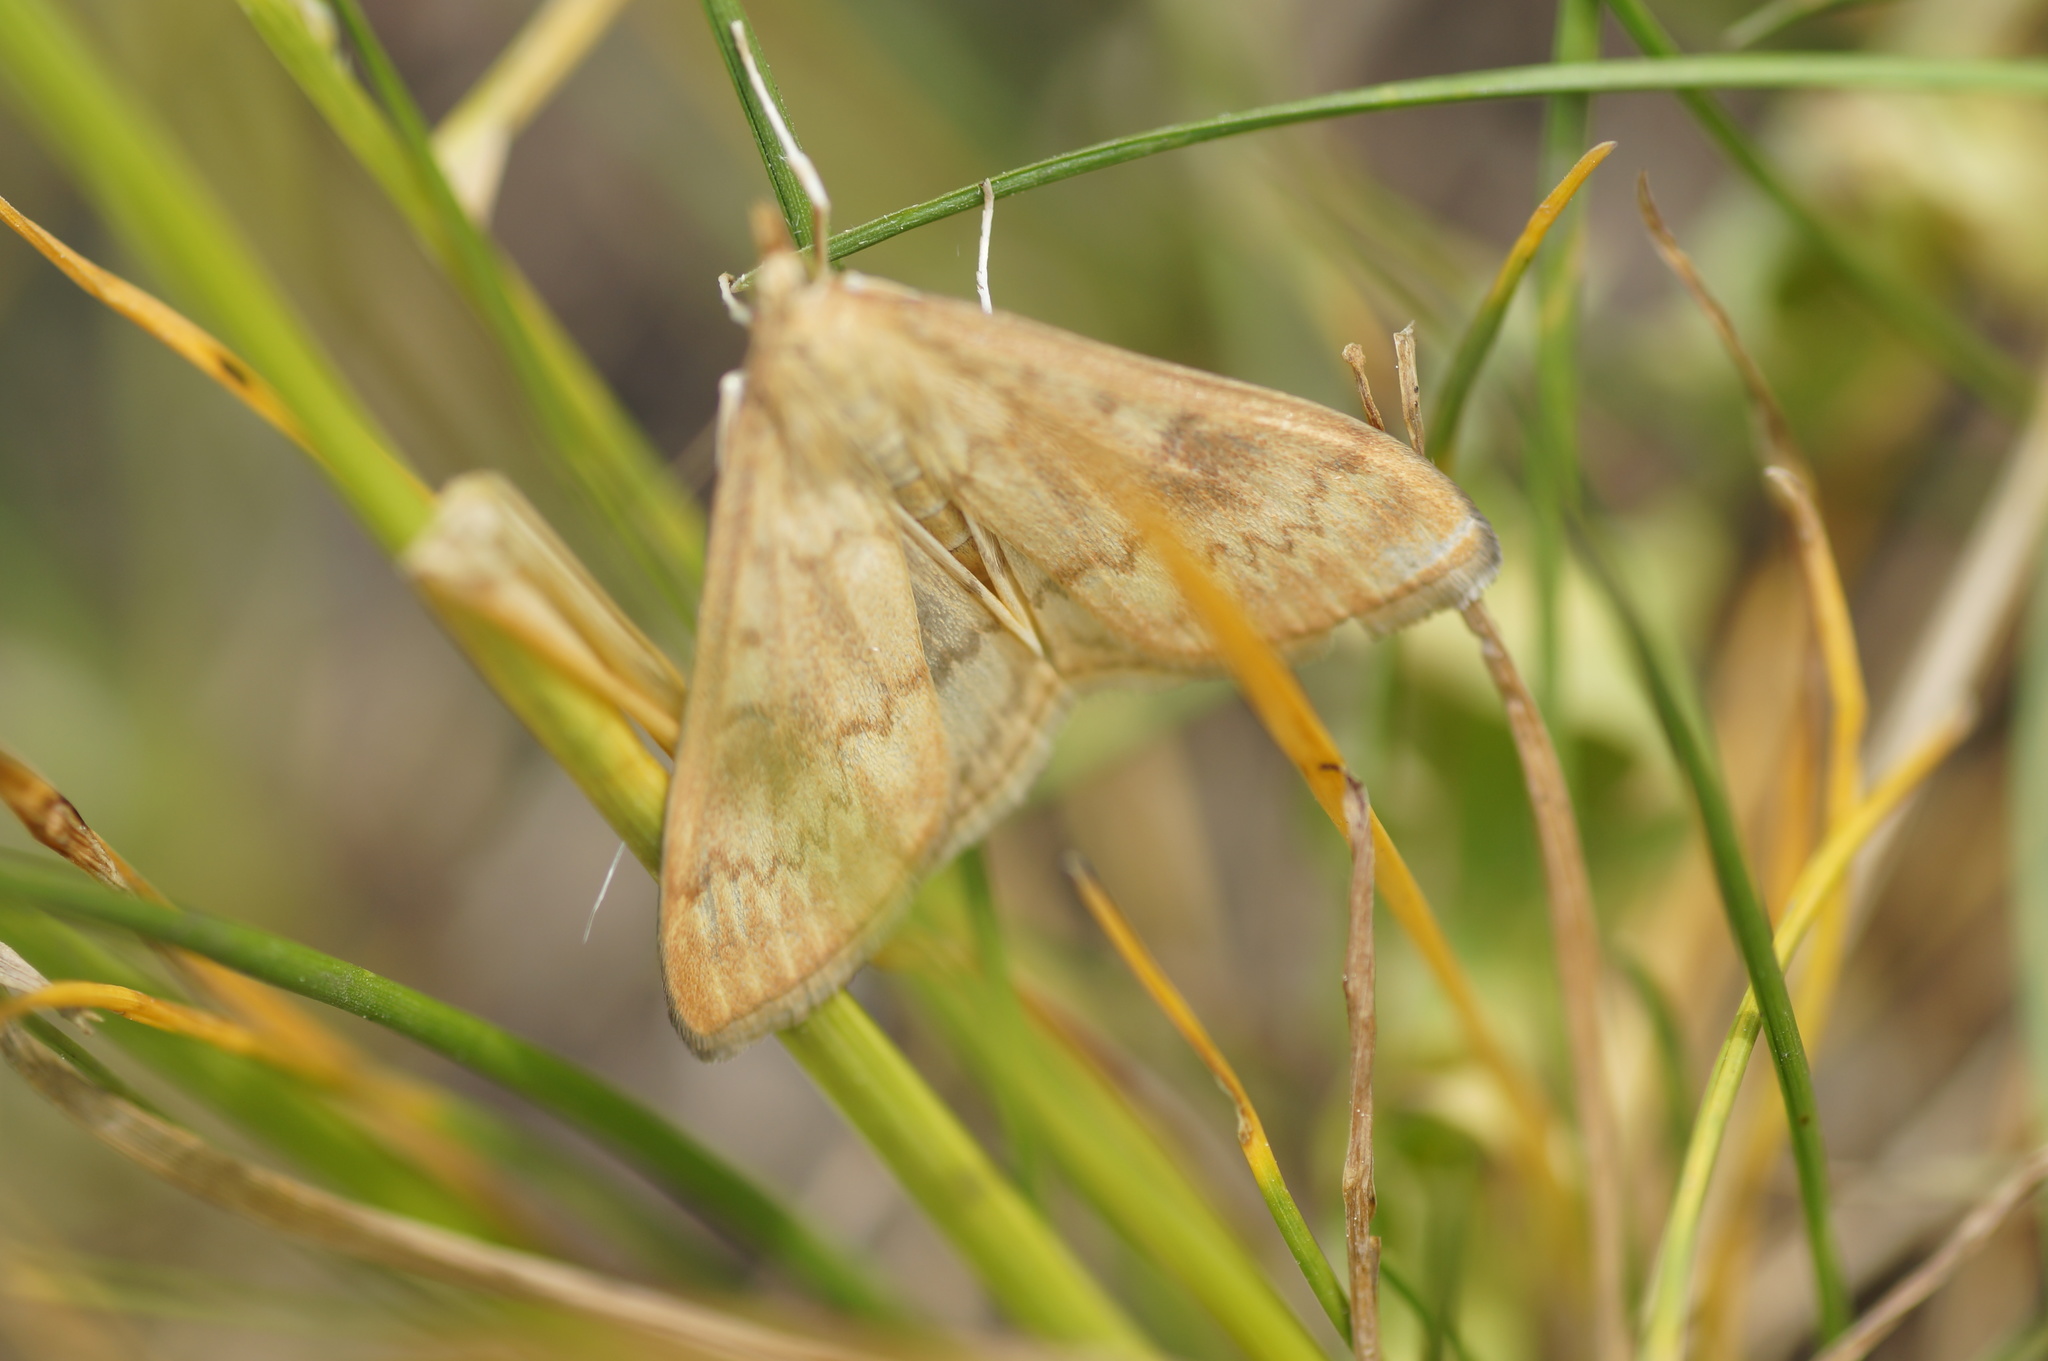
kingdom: Animalia
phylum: Arthropoda
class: Insecta
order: Lepidoptera
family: Crambidae
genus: Ostrinia
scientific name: Ostrinia nubilalis
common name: European corn borer
